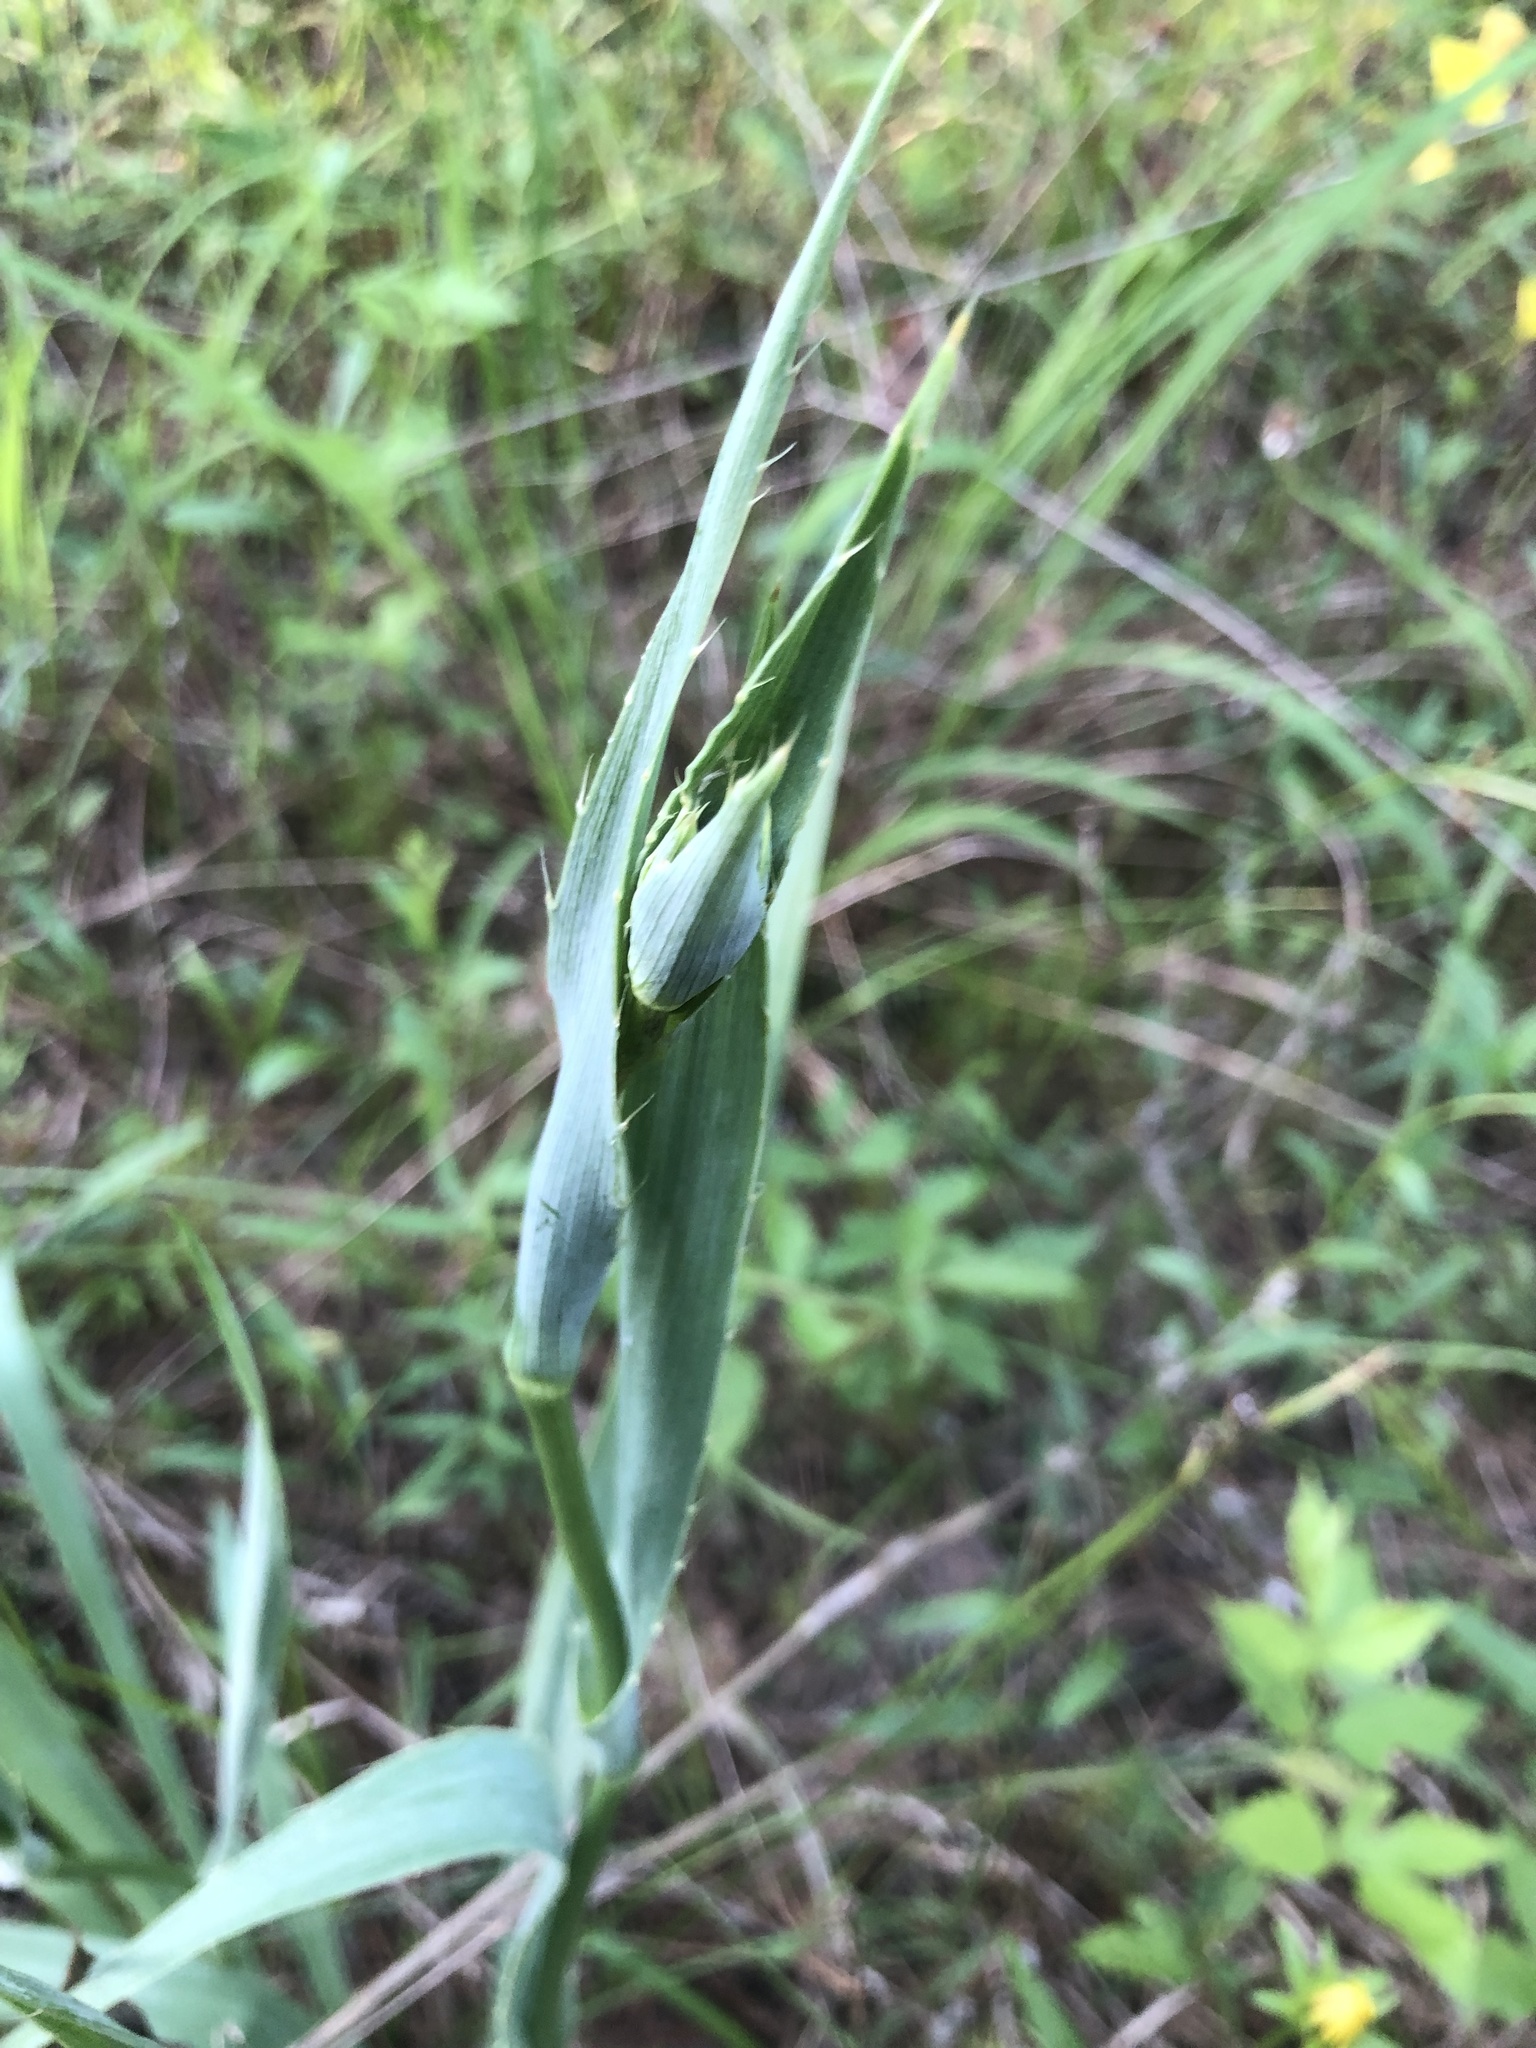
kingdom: Plantae
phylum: Tracheophyta
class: Magnoliopsida
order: Apiales
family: Apiaceae
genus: Eryngium
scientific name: Eryngium yuccifolium
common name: Button eryngo
